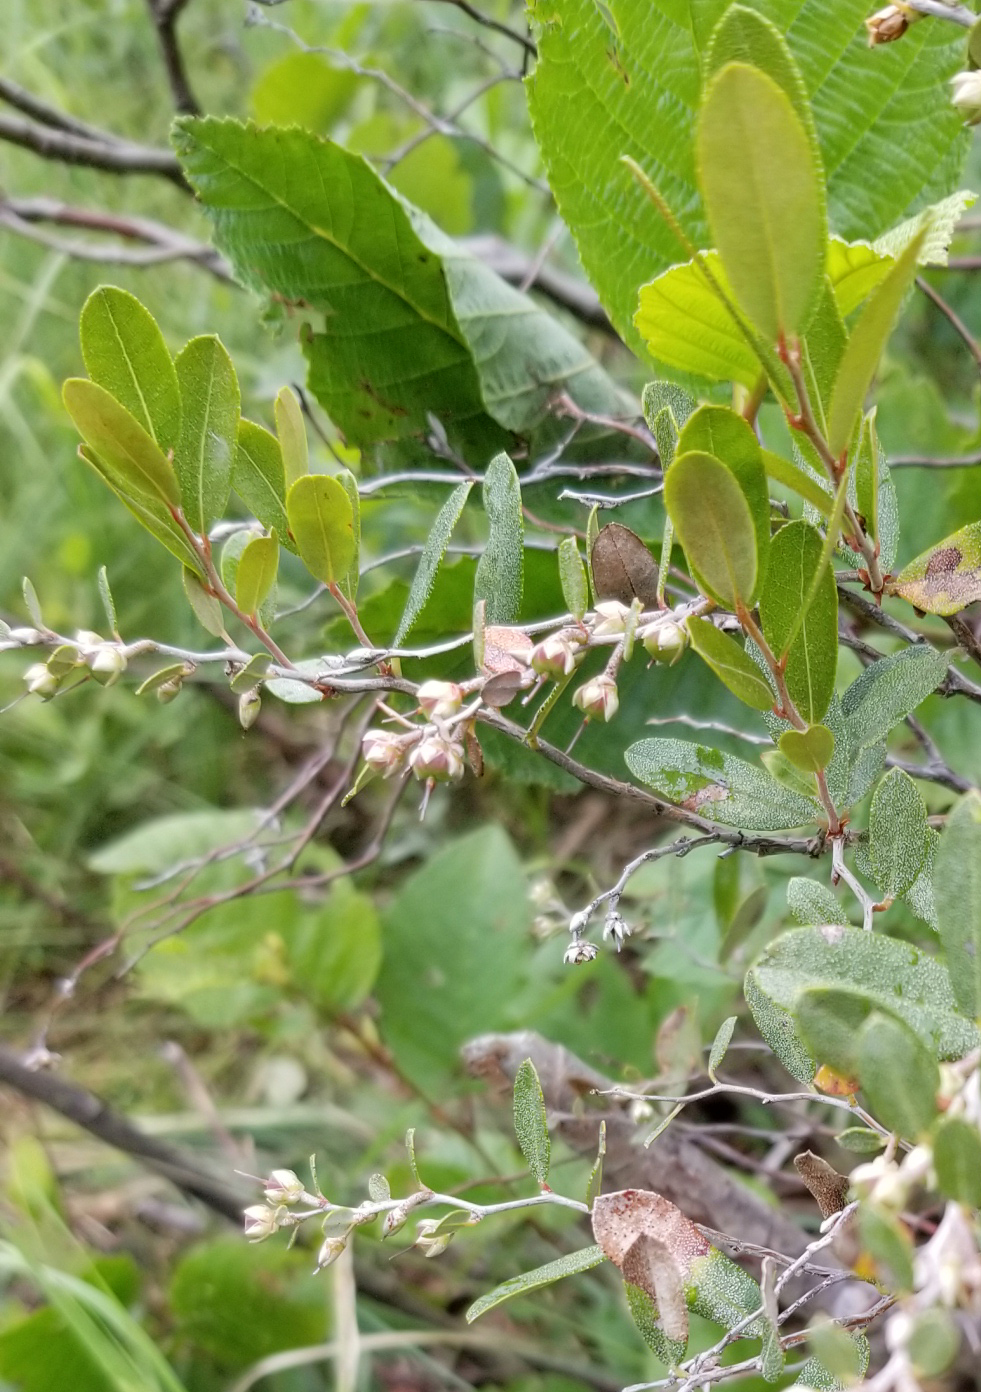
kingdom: Plantae
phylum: Tracheophyta
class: Magnoliopsida
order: Ericales
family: Ericaceae
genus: Chamaedaphne
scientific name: Chamaedaphne calyculata
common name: Leatherleaf
